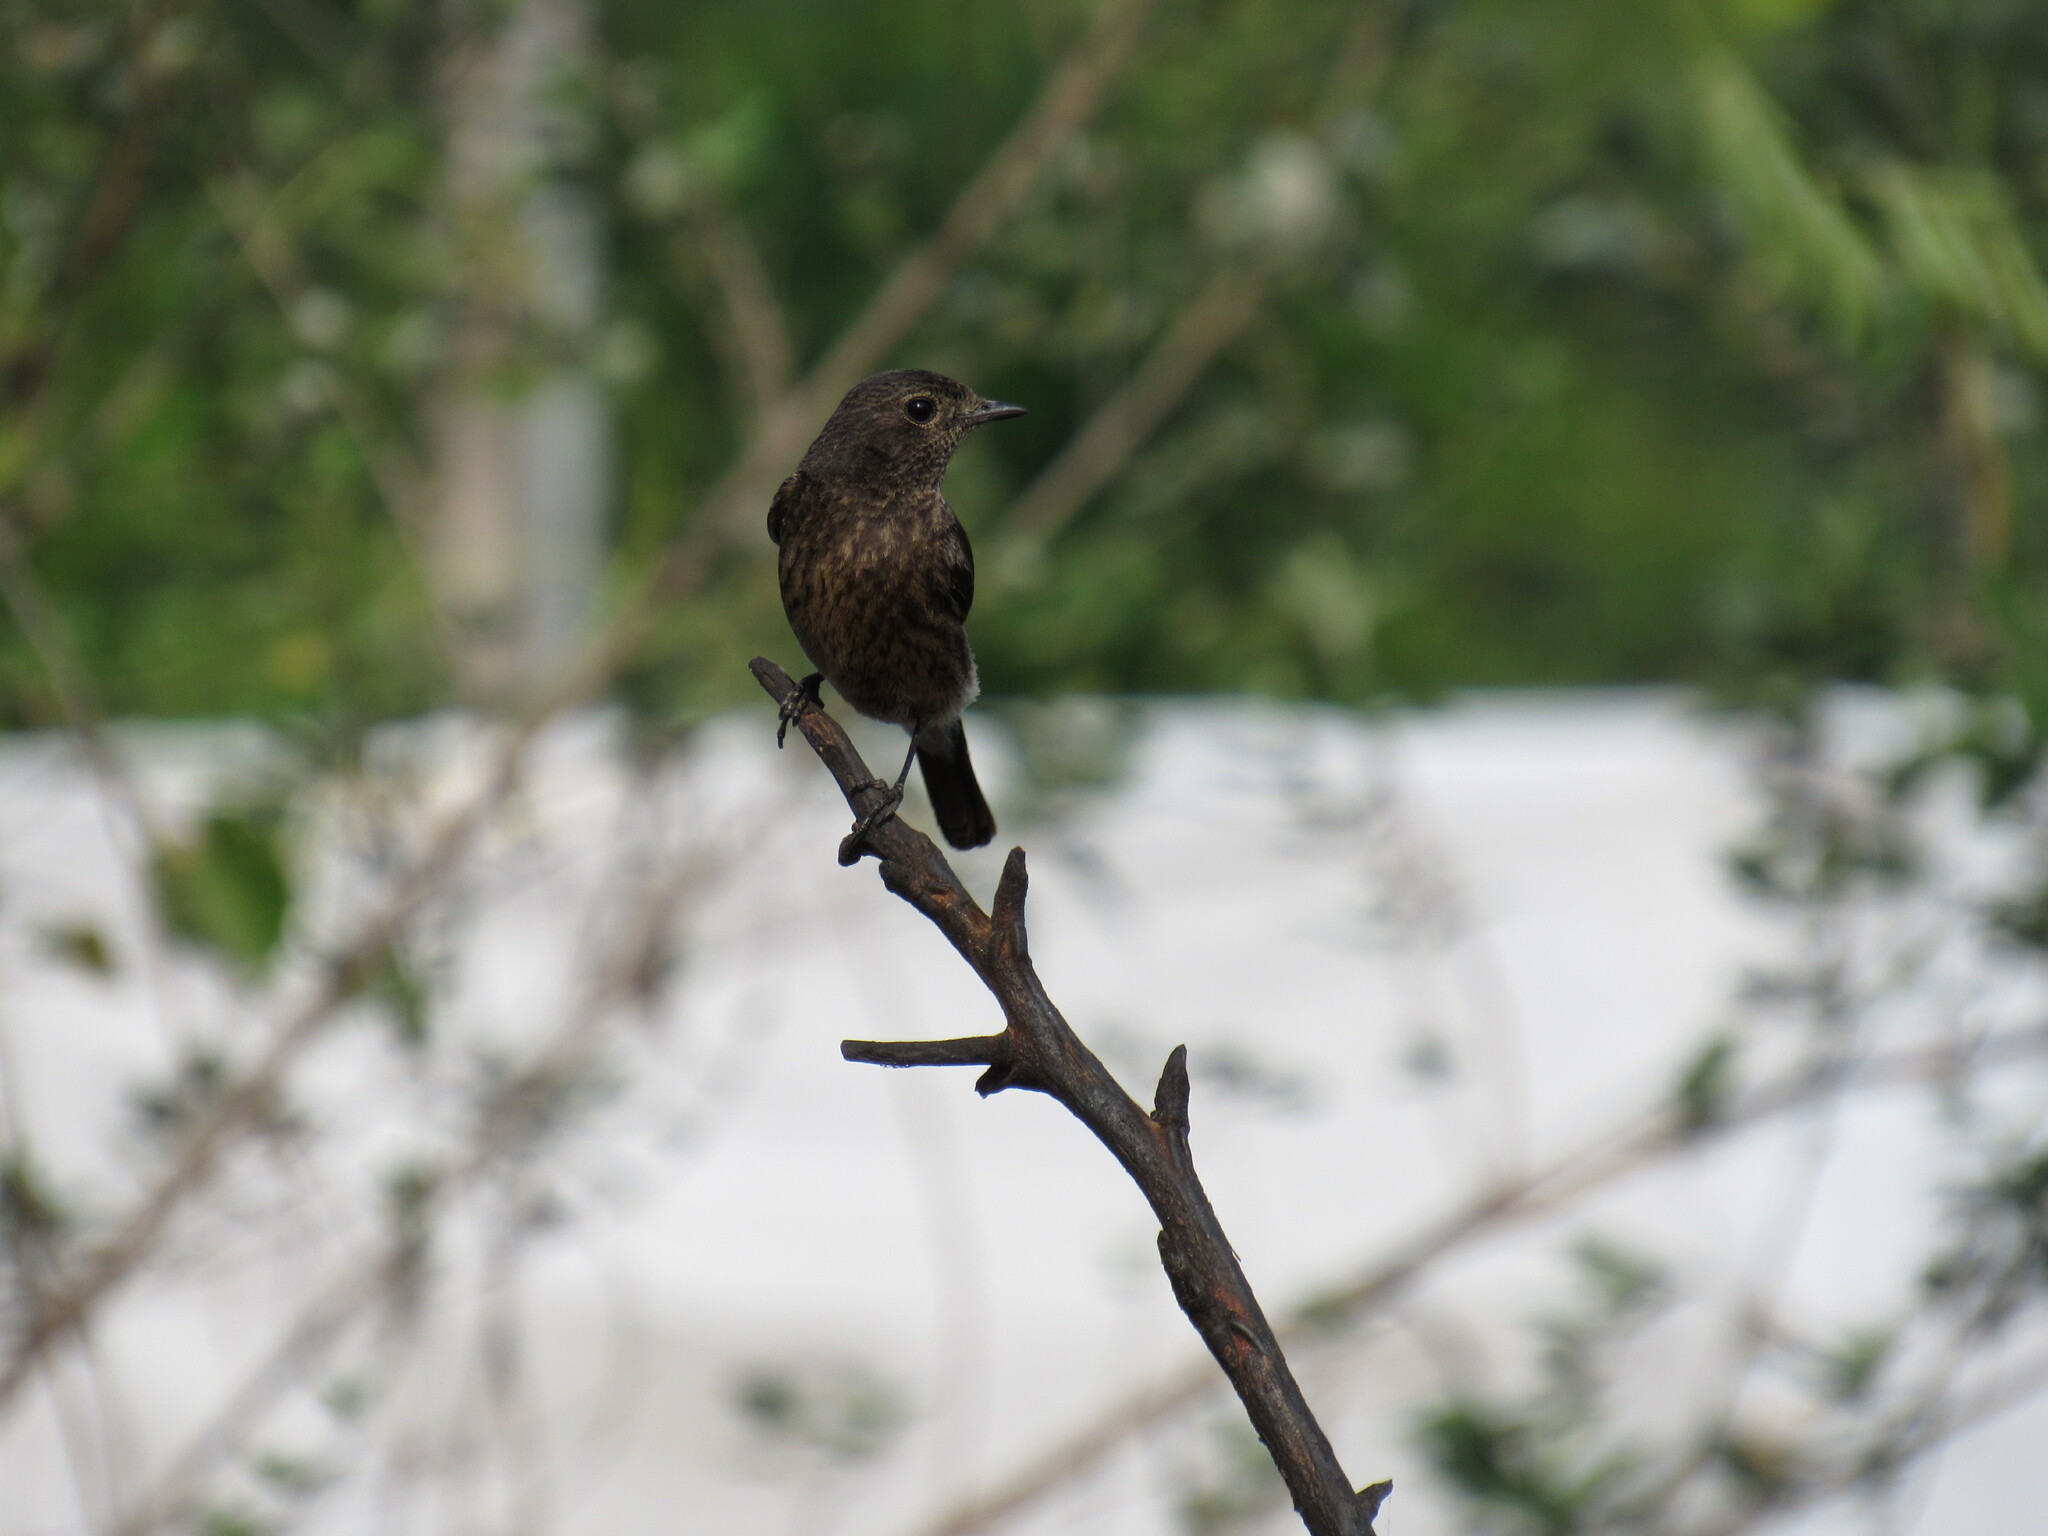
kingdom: Animalia
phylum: Chordata
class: Aves
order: Passeriformes
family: Muscicapidae
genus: Saxicola
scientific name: Saxicola caprata
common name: Pied bush chat
